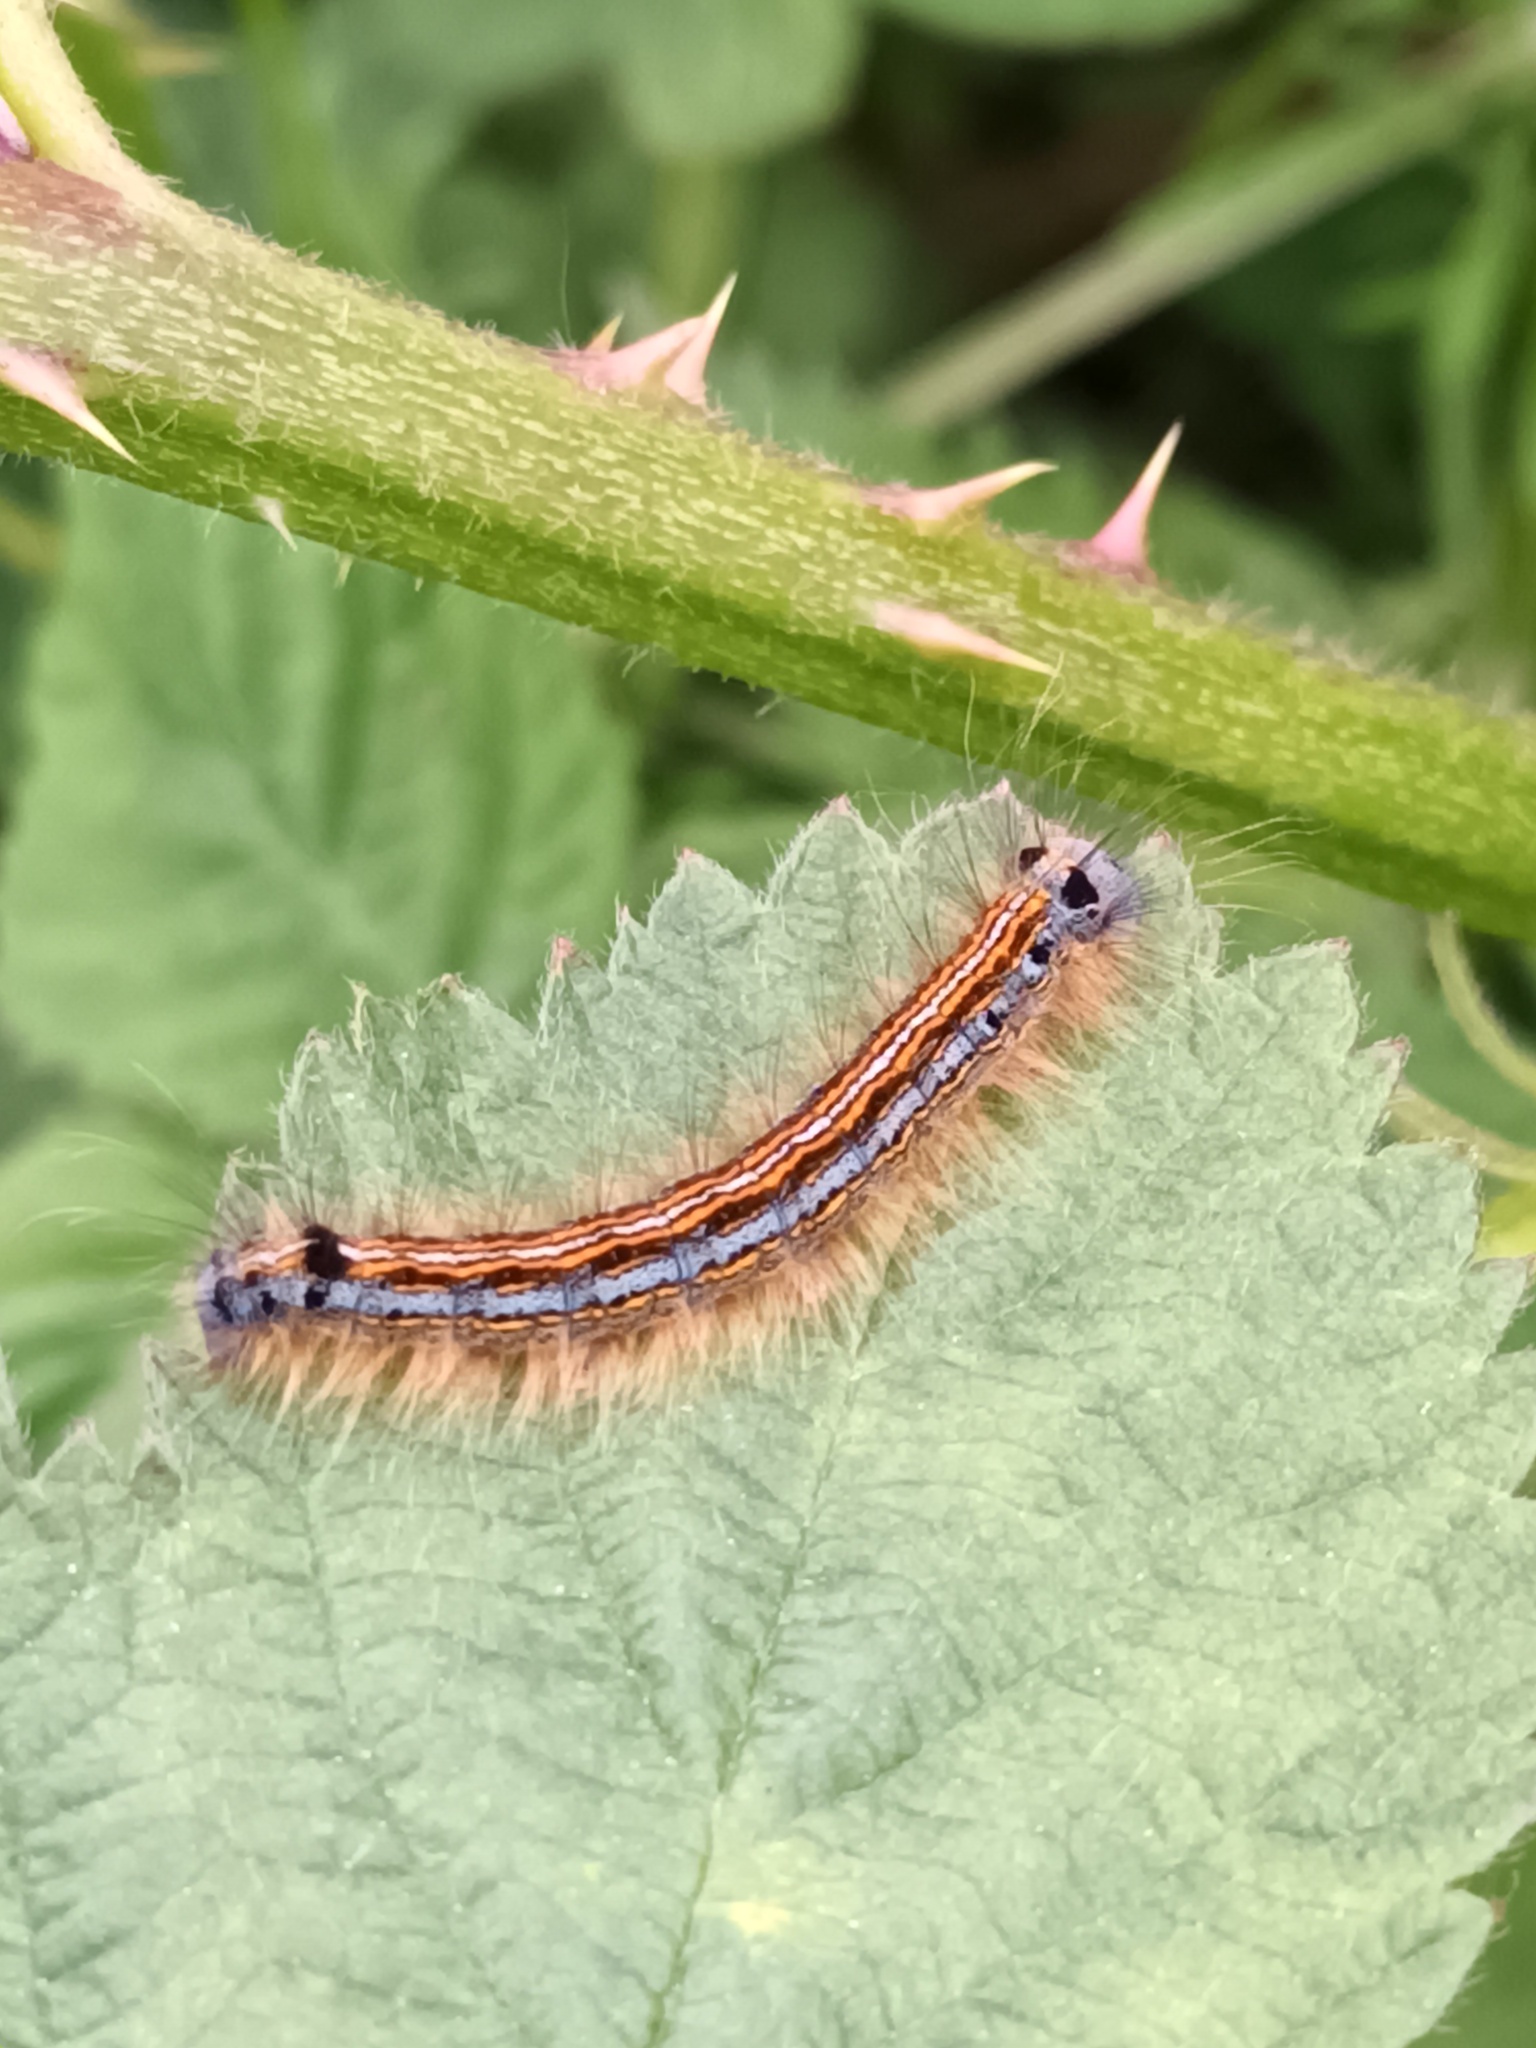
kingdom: Animalia
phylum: Arthropoda
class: Insecta
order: Lepidoptera
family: Lasiocampidae
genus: Malacosoma
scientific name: Malacosoma neustria
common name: The lackey
